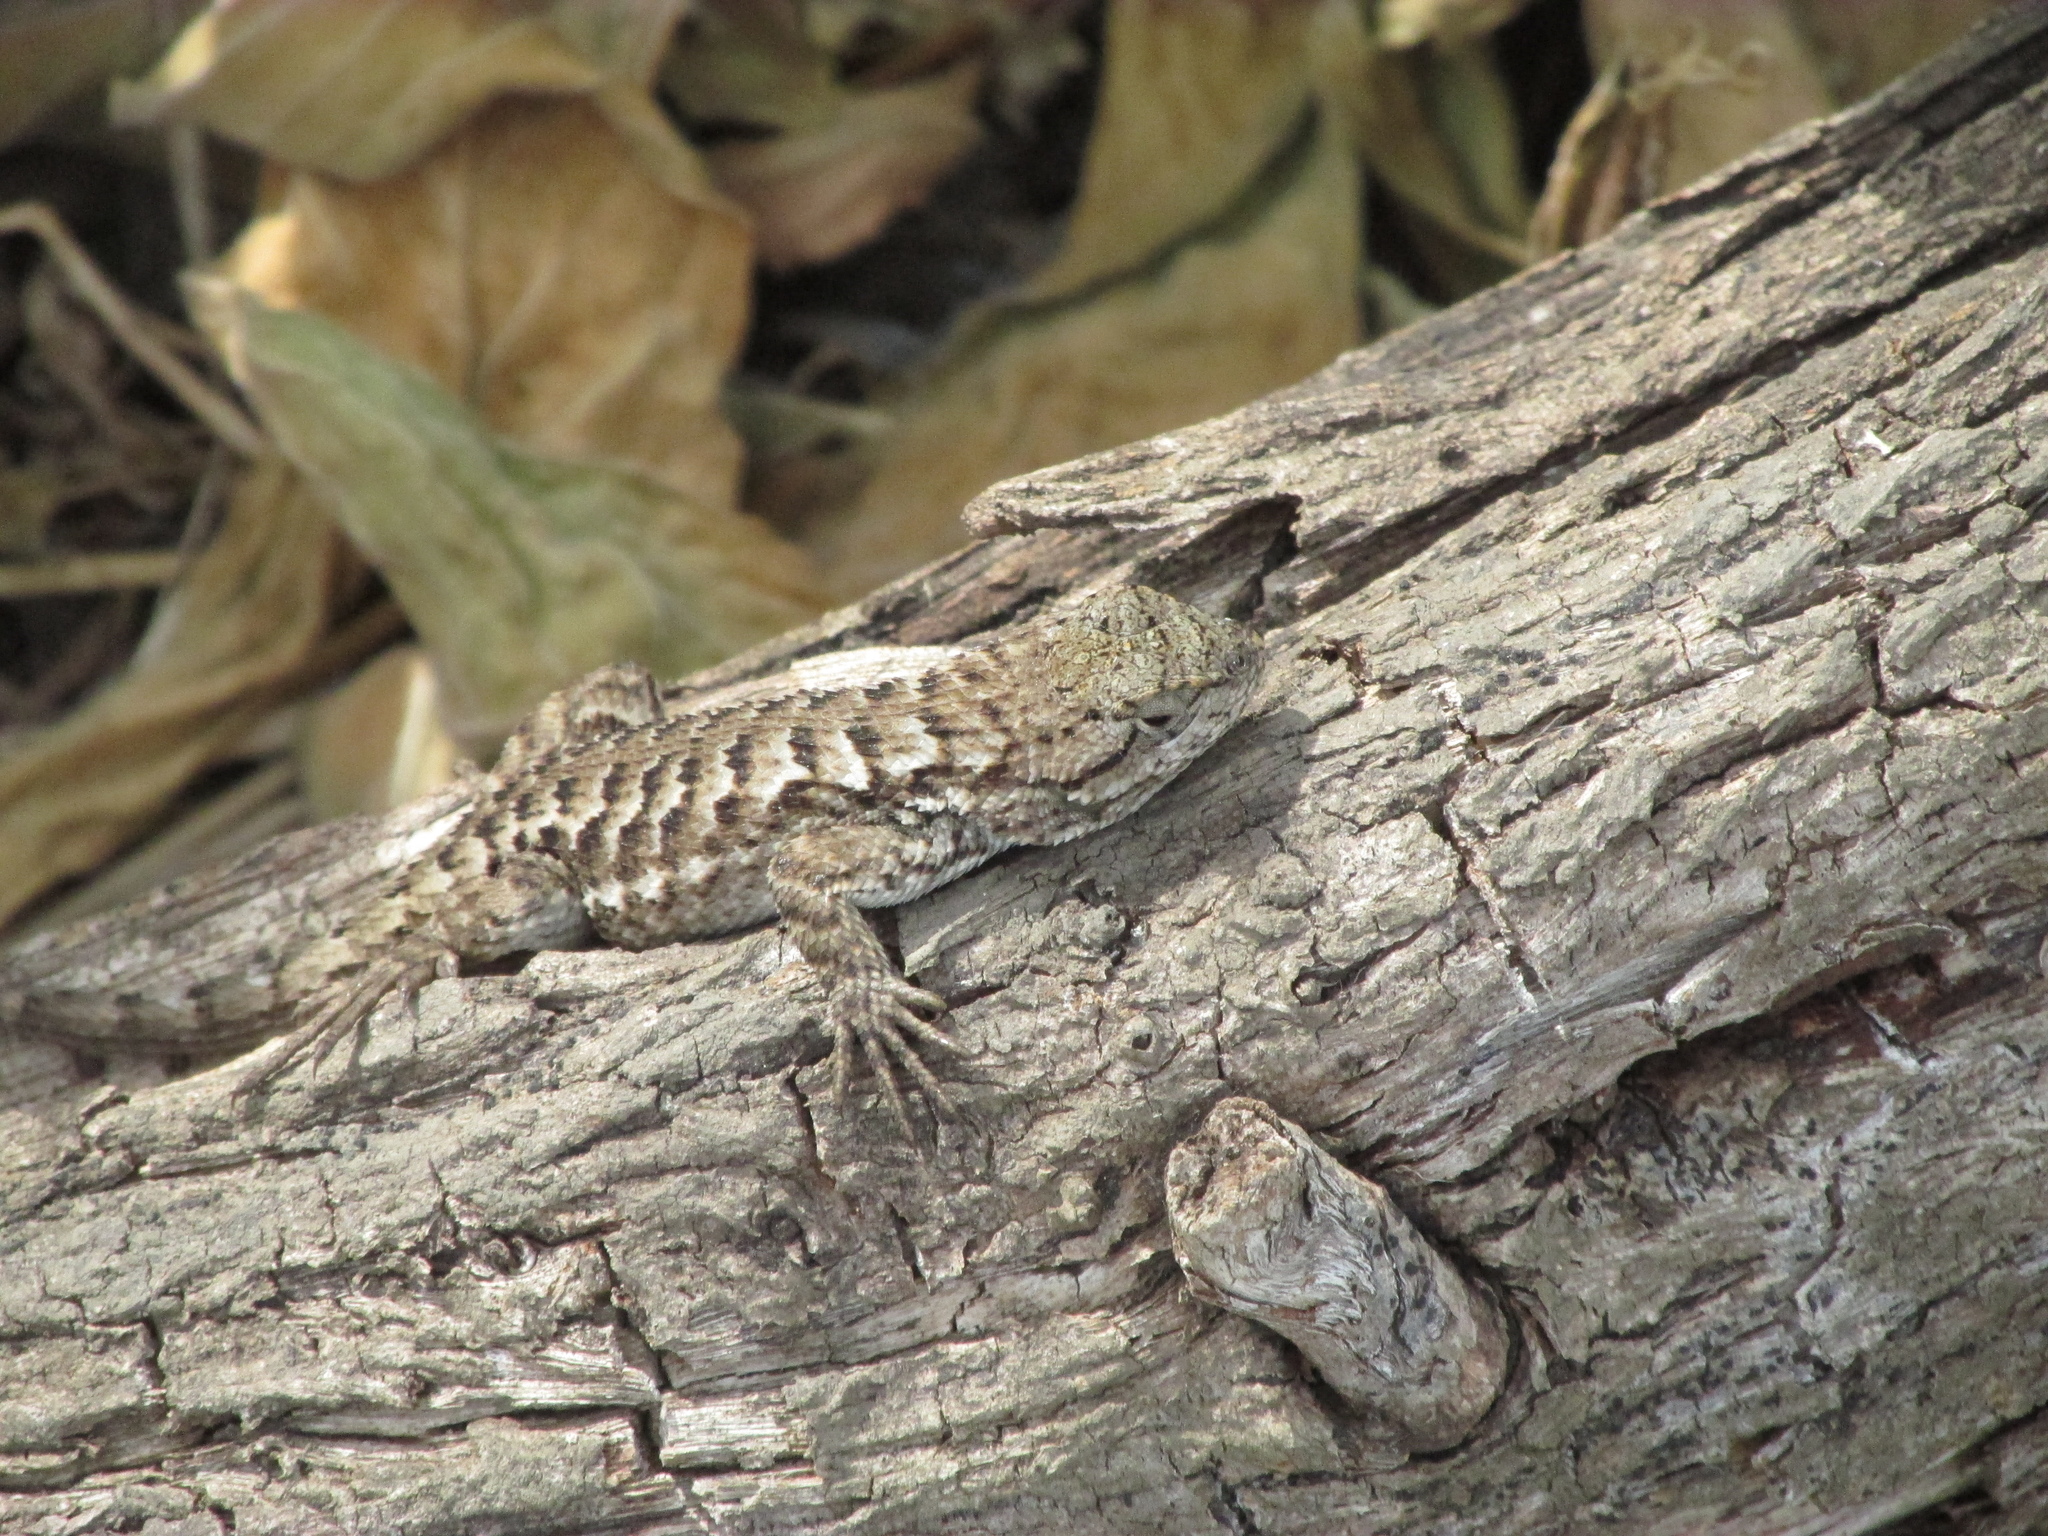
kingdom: Animalia
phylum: Chordata
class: Squamata
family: Phrynosomatidae
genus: Sceloporus
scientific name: Sceloporus occidentalis
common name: Western fence lizard
